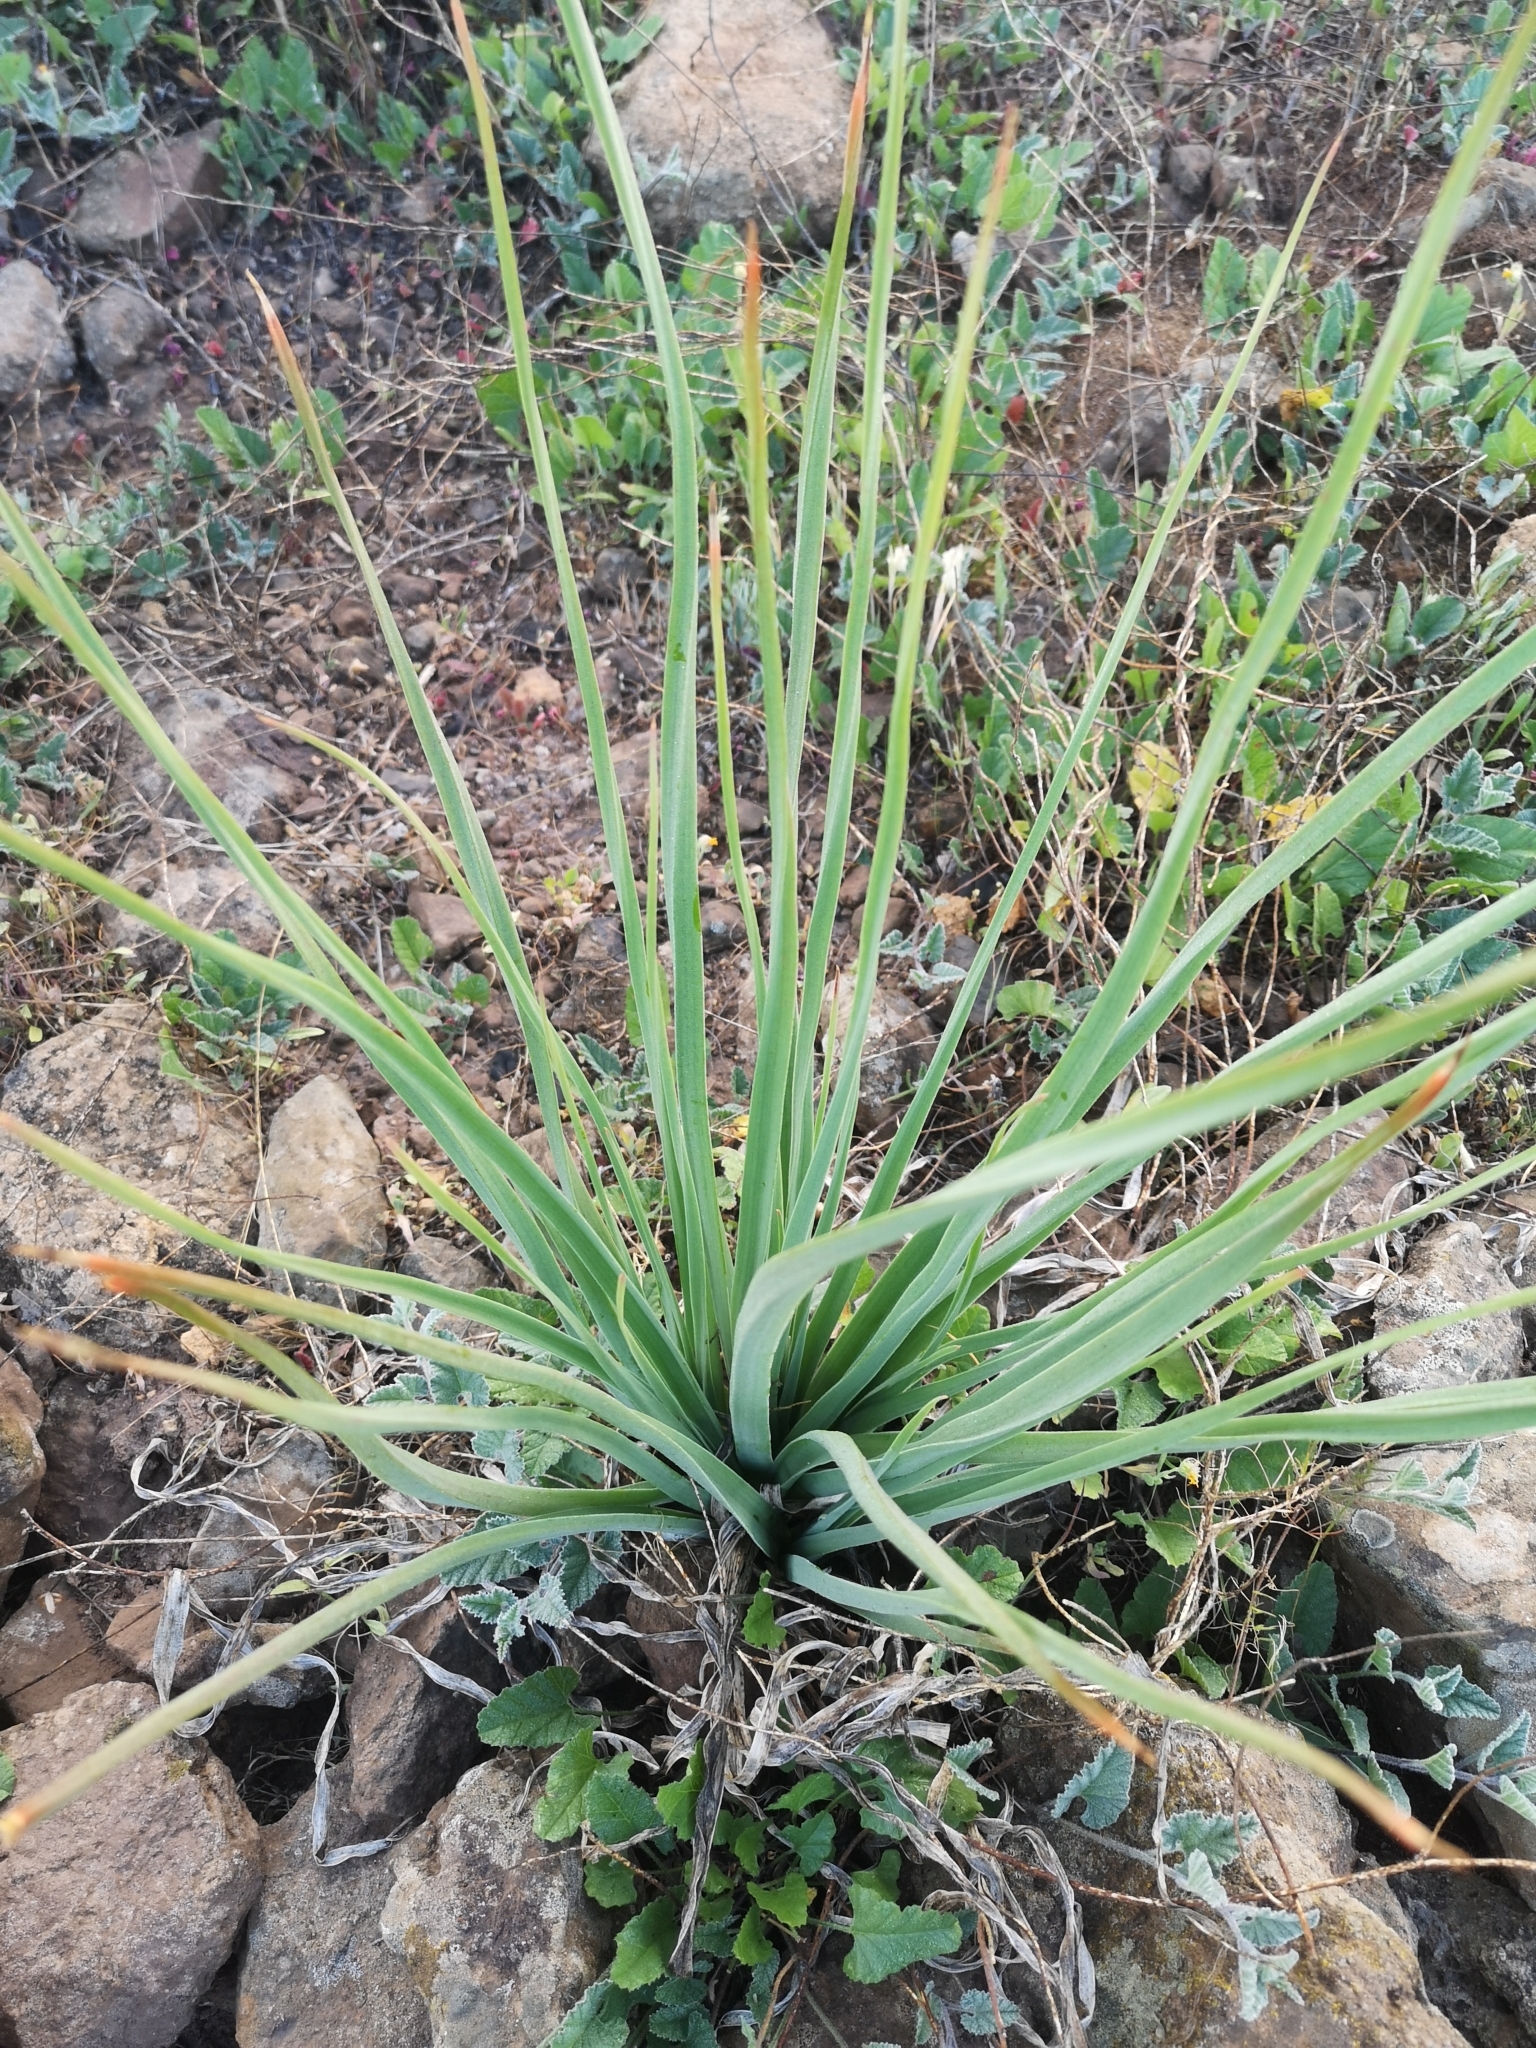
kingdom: Plantae
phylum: Tracheophyta
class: Liliopsida
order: Asparagales
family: Asphodelaceae
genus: Asphodelus
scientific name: Asphodelus ramosus
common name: Silverrod
